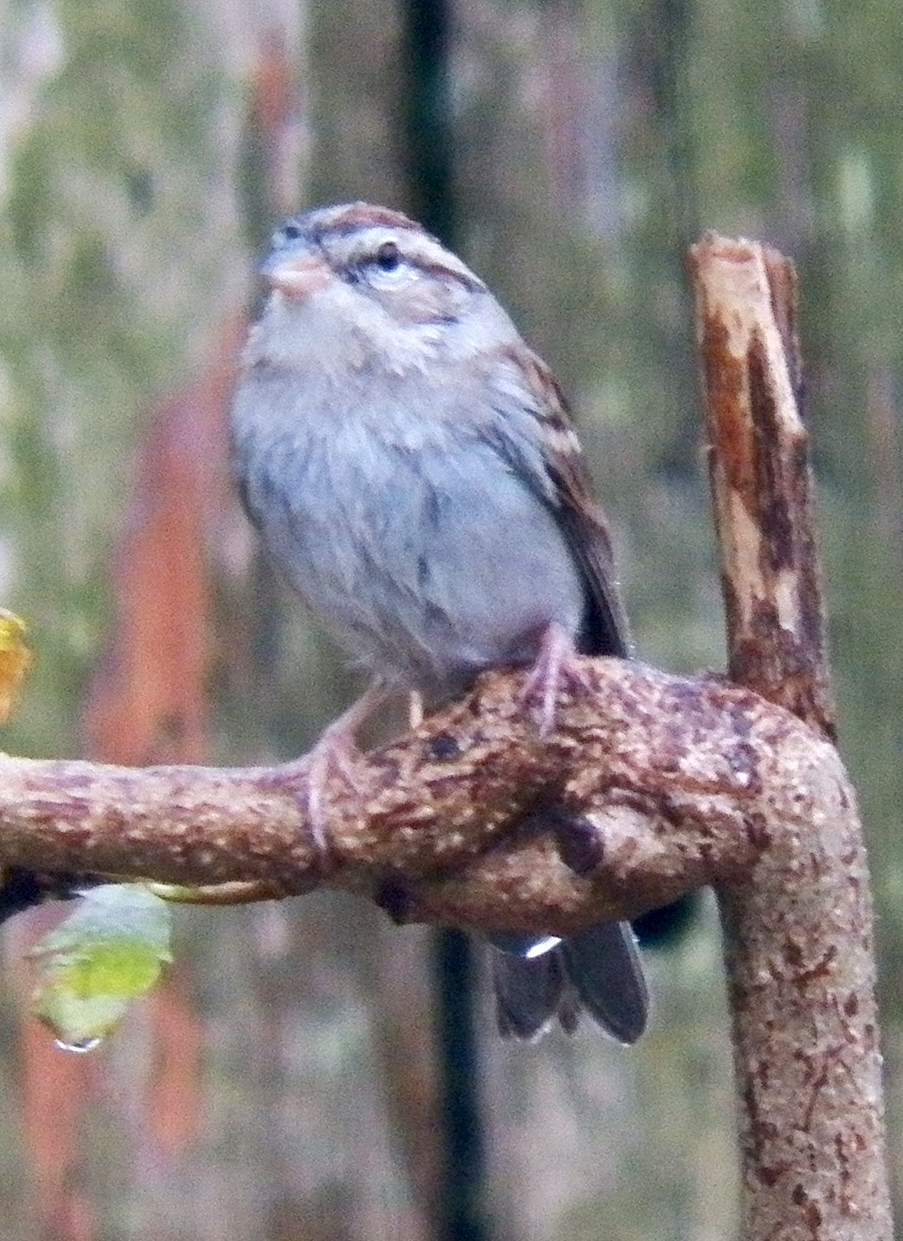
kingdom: Animalia
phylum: Chordata
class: Aves
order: Passeriformes
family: Passerellidae
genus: Spizella
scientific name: Spizella passerina
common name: Chipping sparrow
